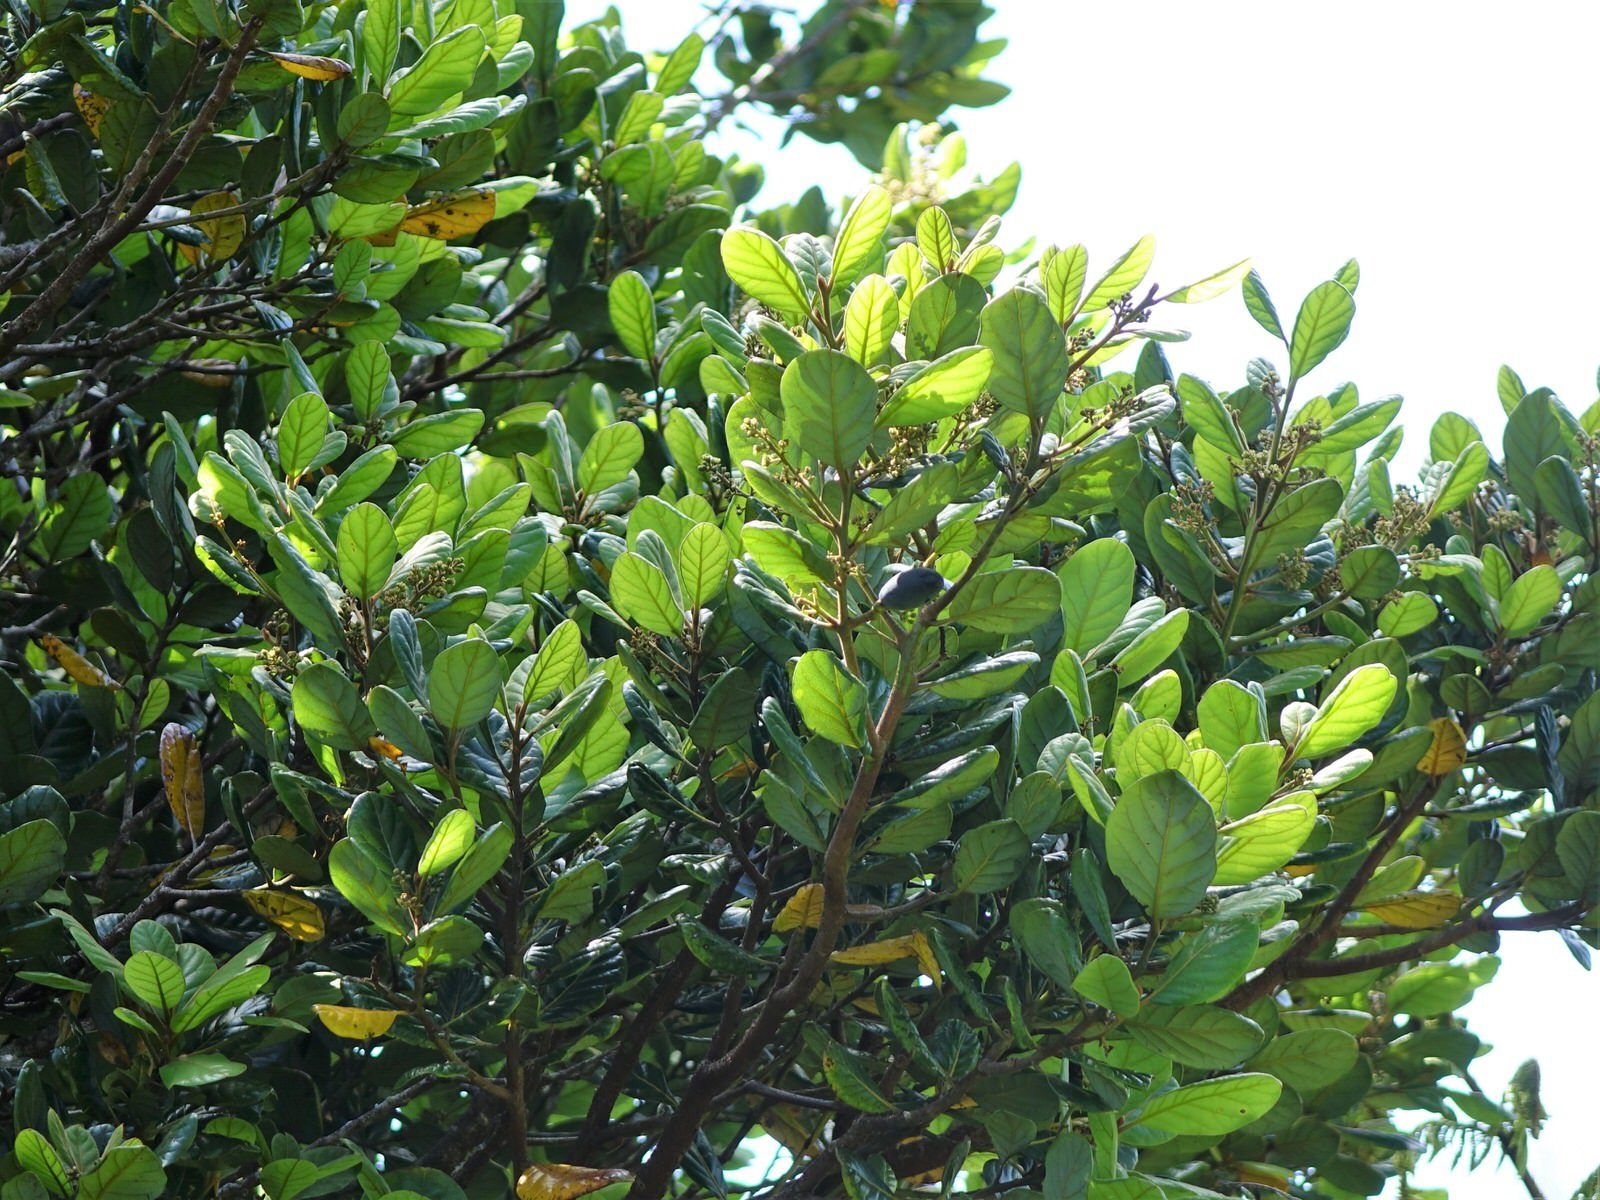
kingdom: Plantae
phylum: Tracheophyta
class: Magnoliopsida
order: Laurales
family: Lauraceae
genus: Beilschmiedia
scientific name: Beilschmiedia tarairi
